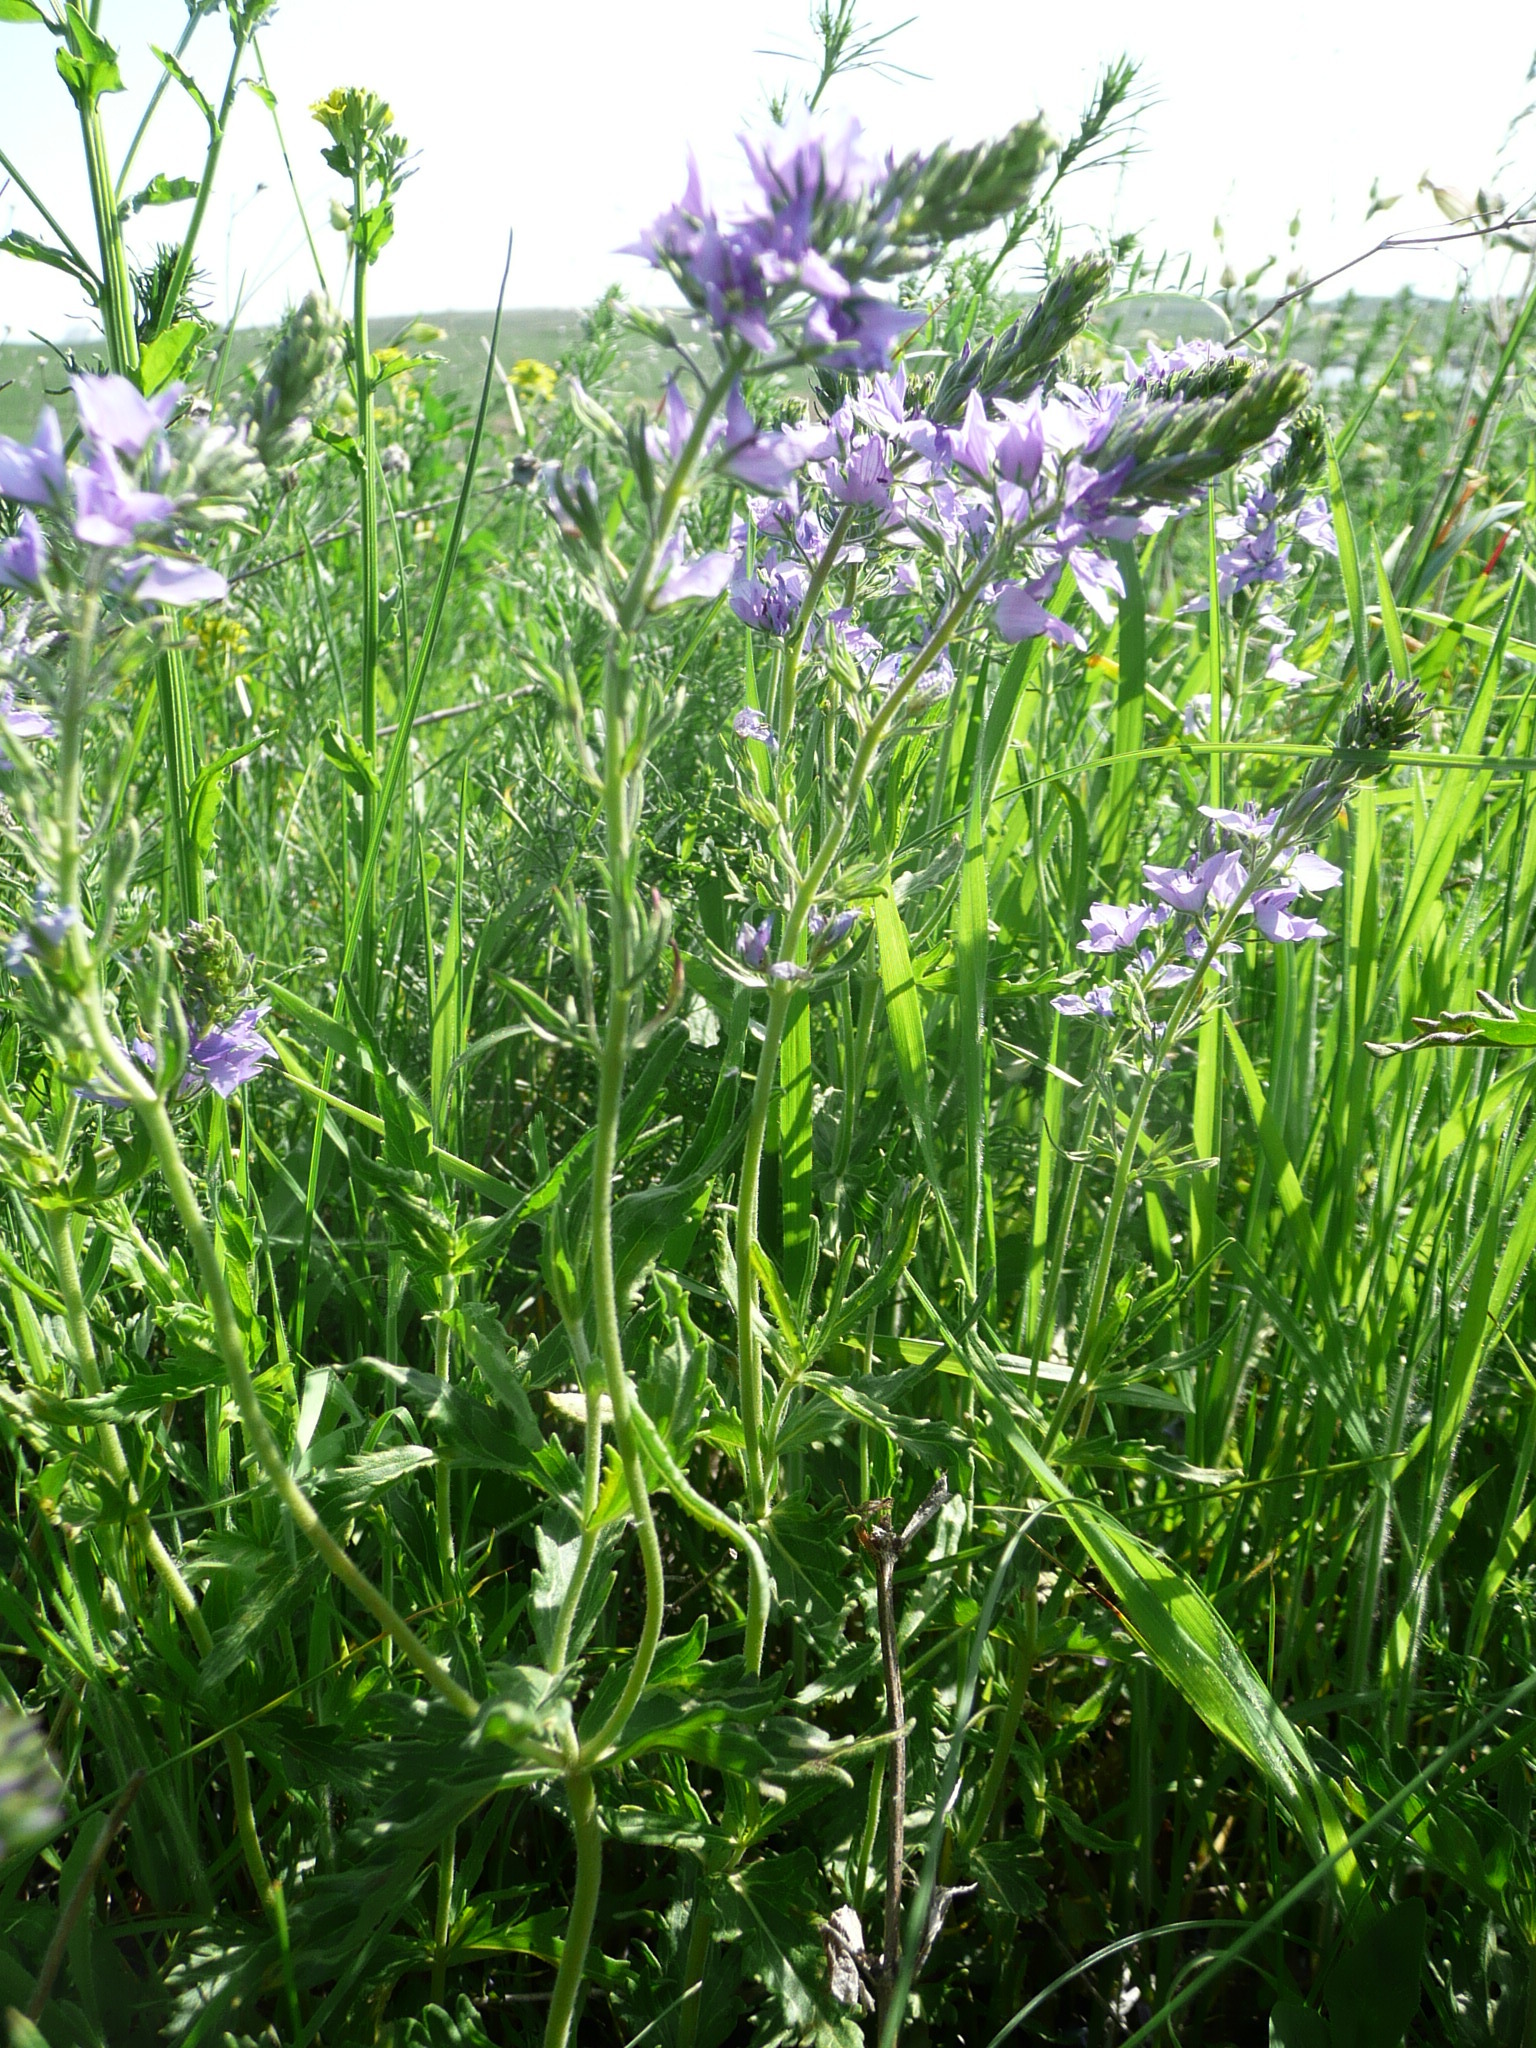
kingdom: Plantae
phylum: Tracheophyta
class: Magnoliopsida
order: Lamiales
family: Plantaginaceae
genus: Veronica
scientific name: Veronica austriaca
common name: Large speedwell
